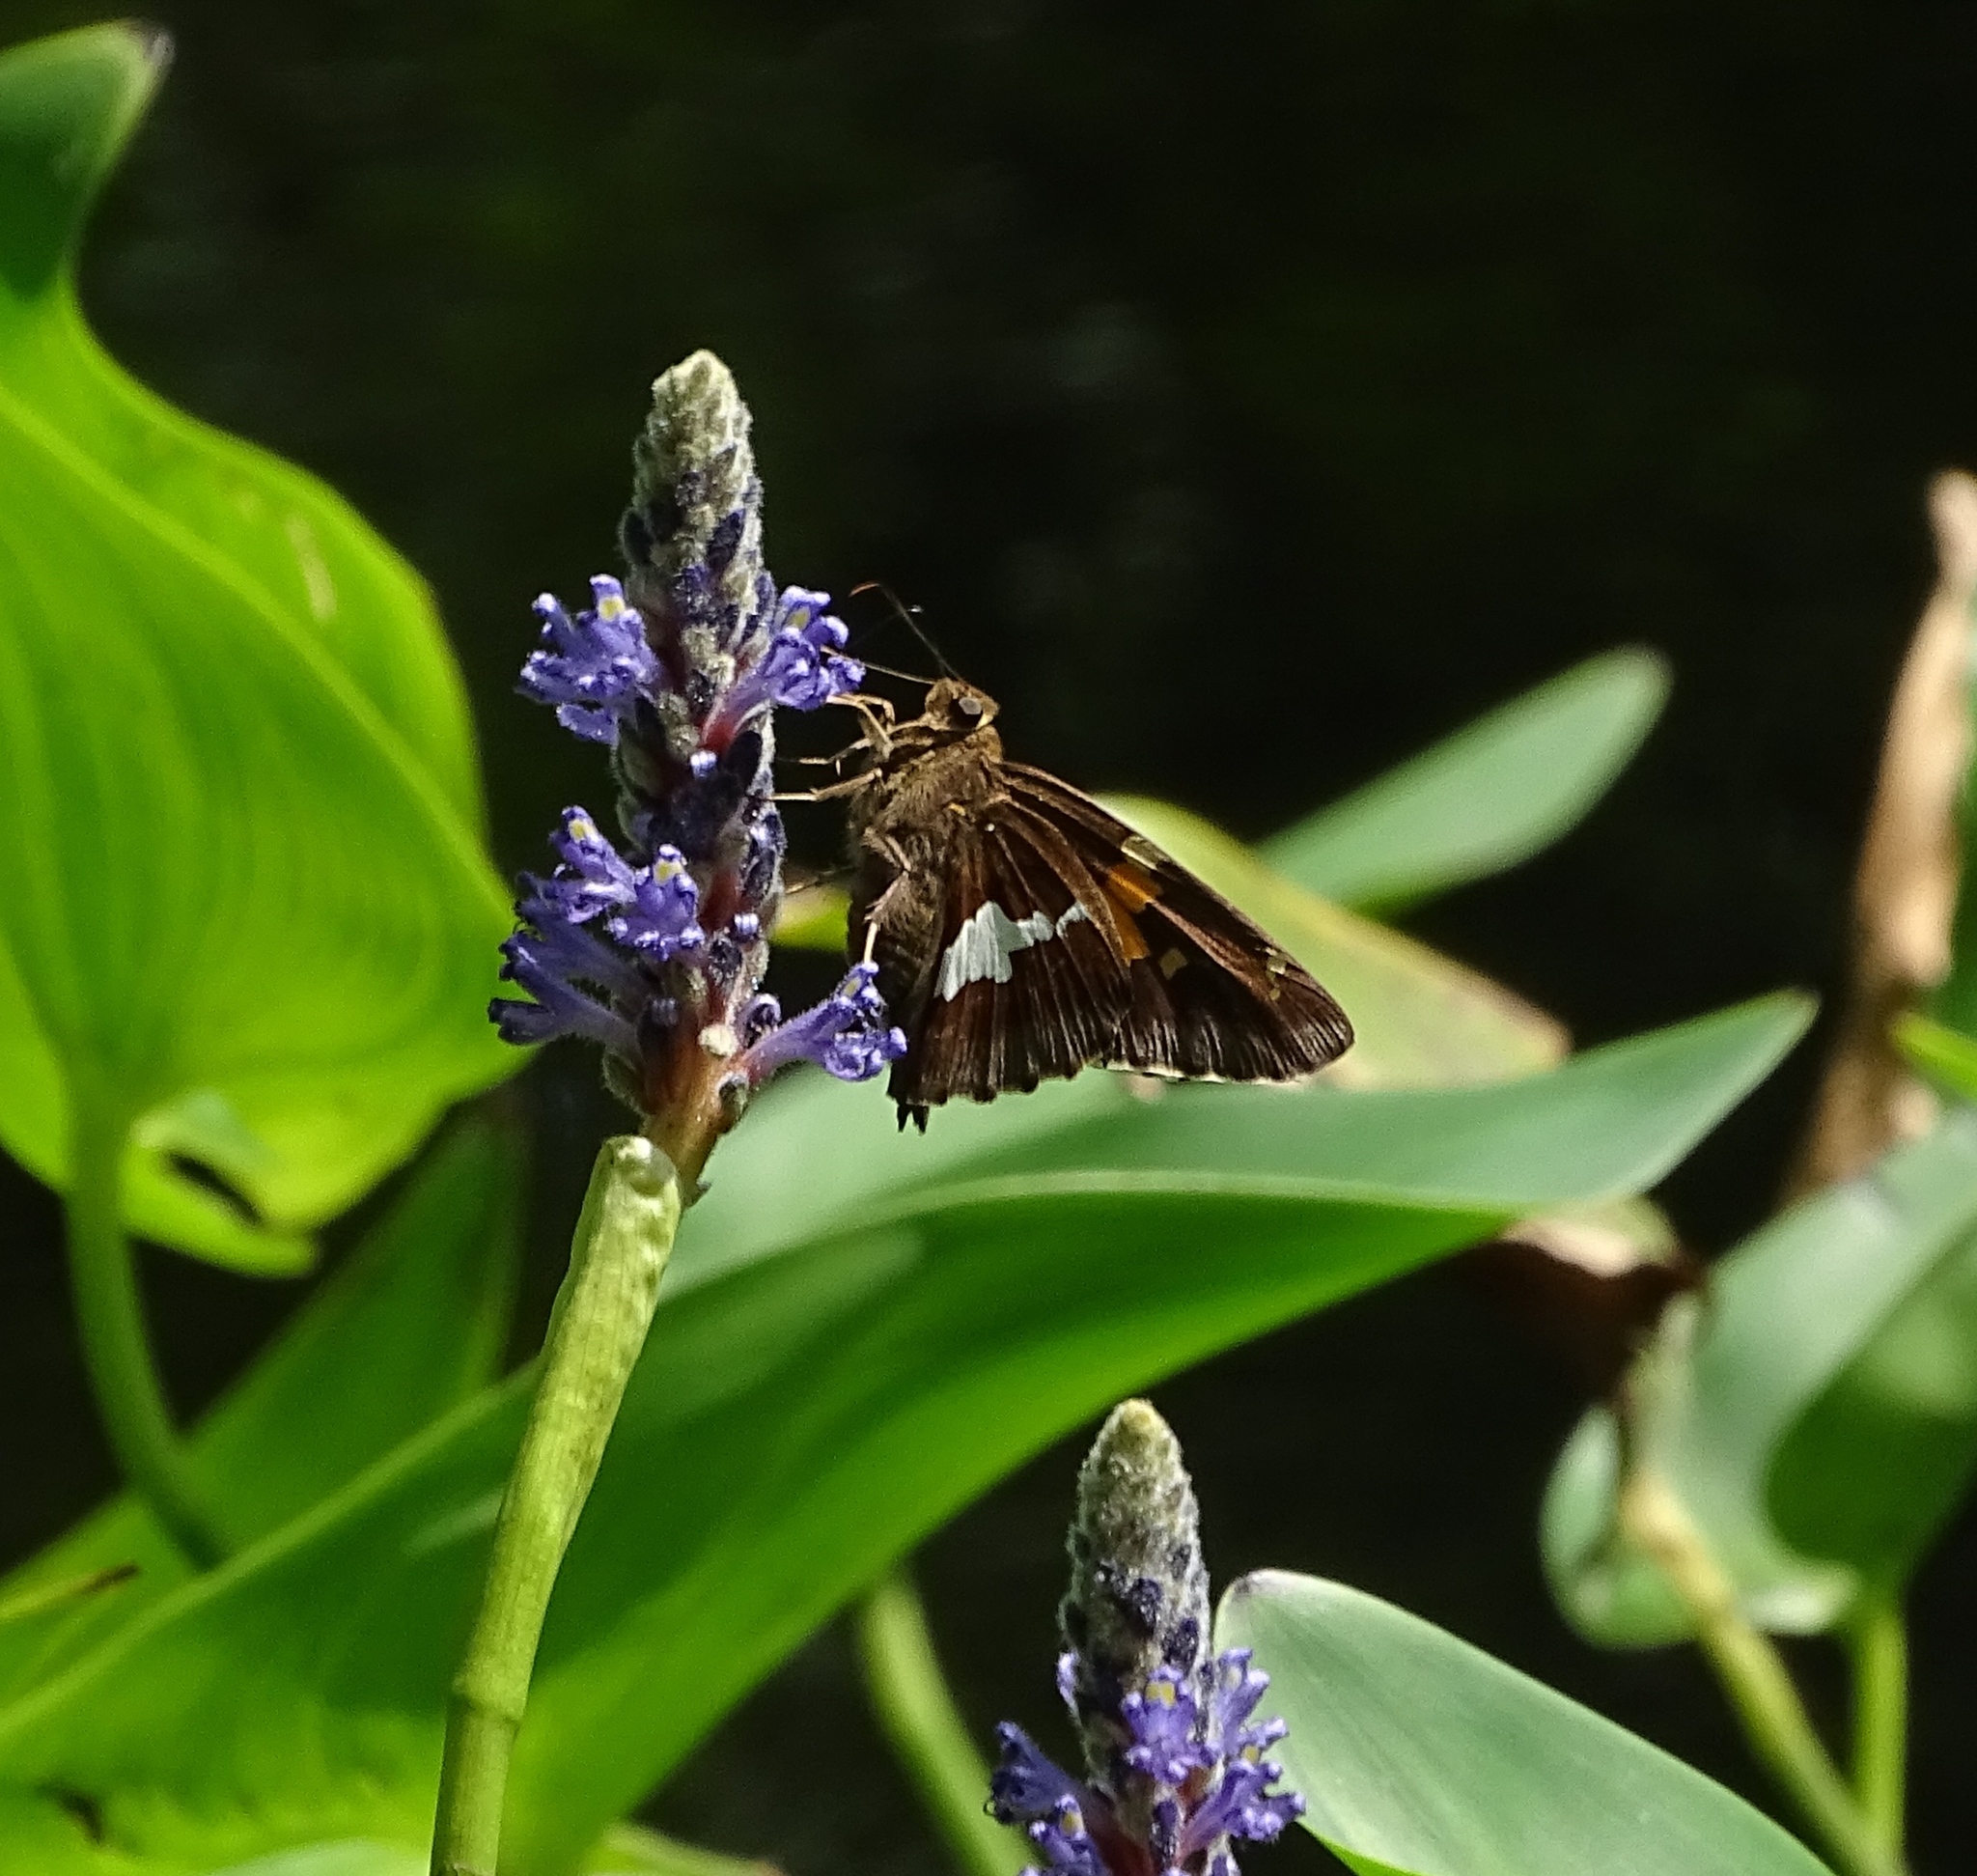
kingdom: Animalia
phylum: Arthropoda
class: Insecta
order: Lepidoptera
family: Hesperiidae
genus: Epargyreus
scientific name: Epargyreus clarus
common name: Silver-spotted skipper
